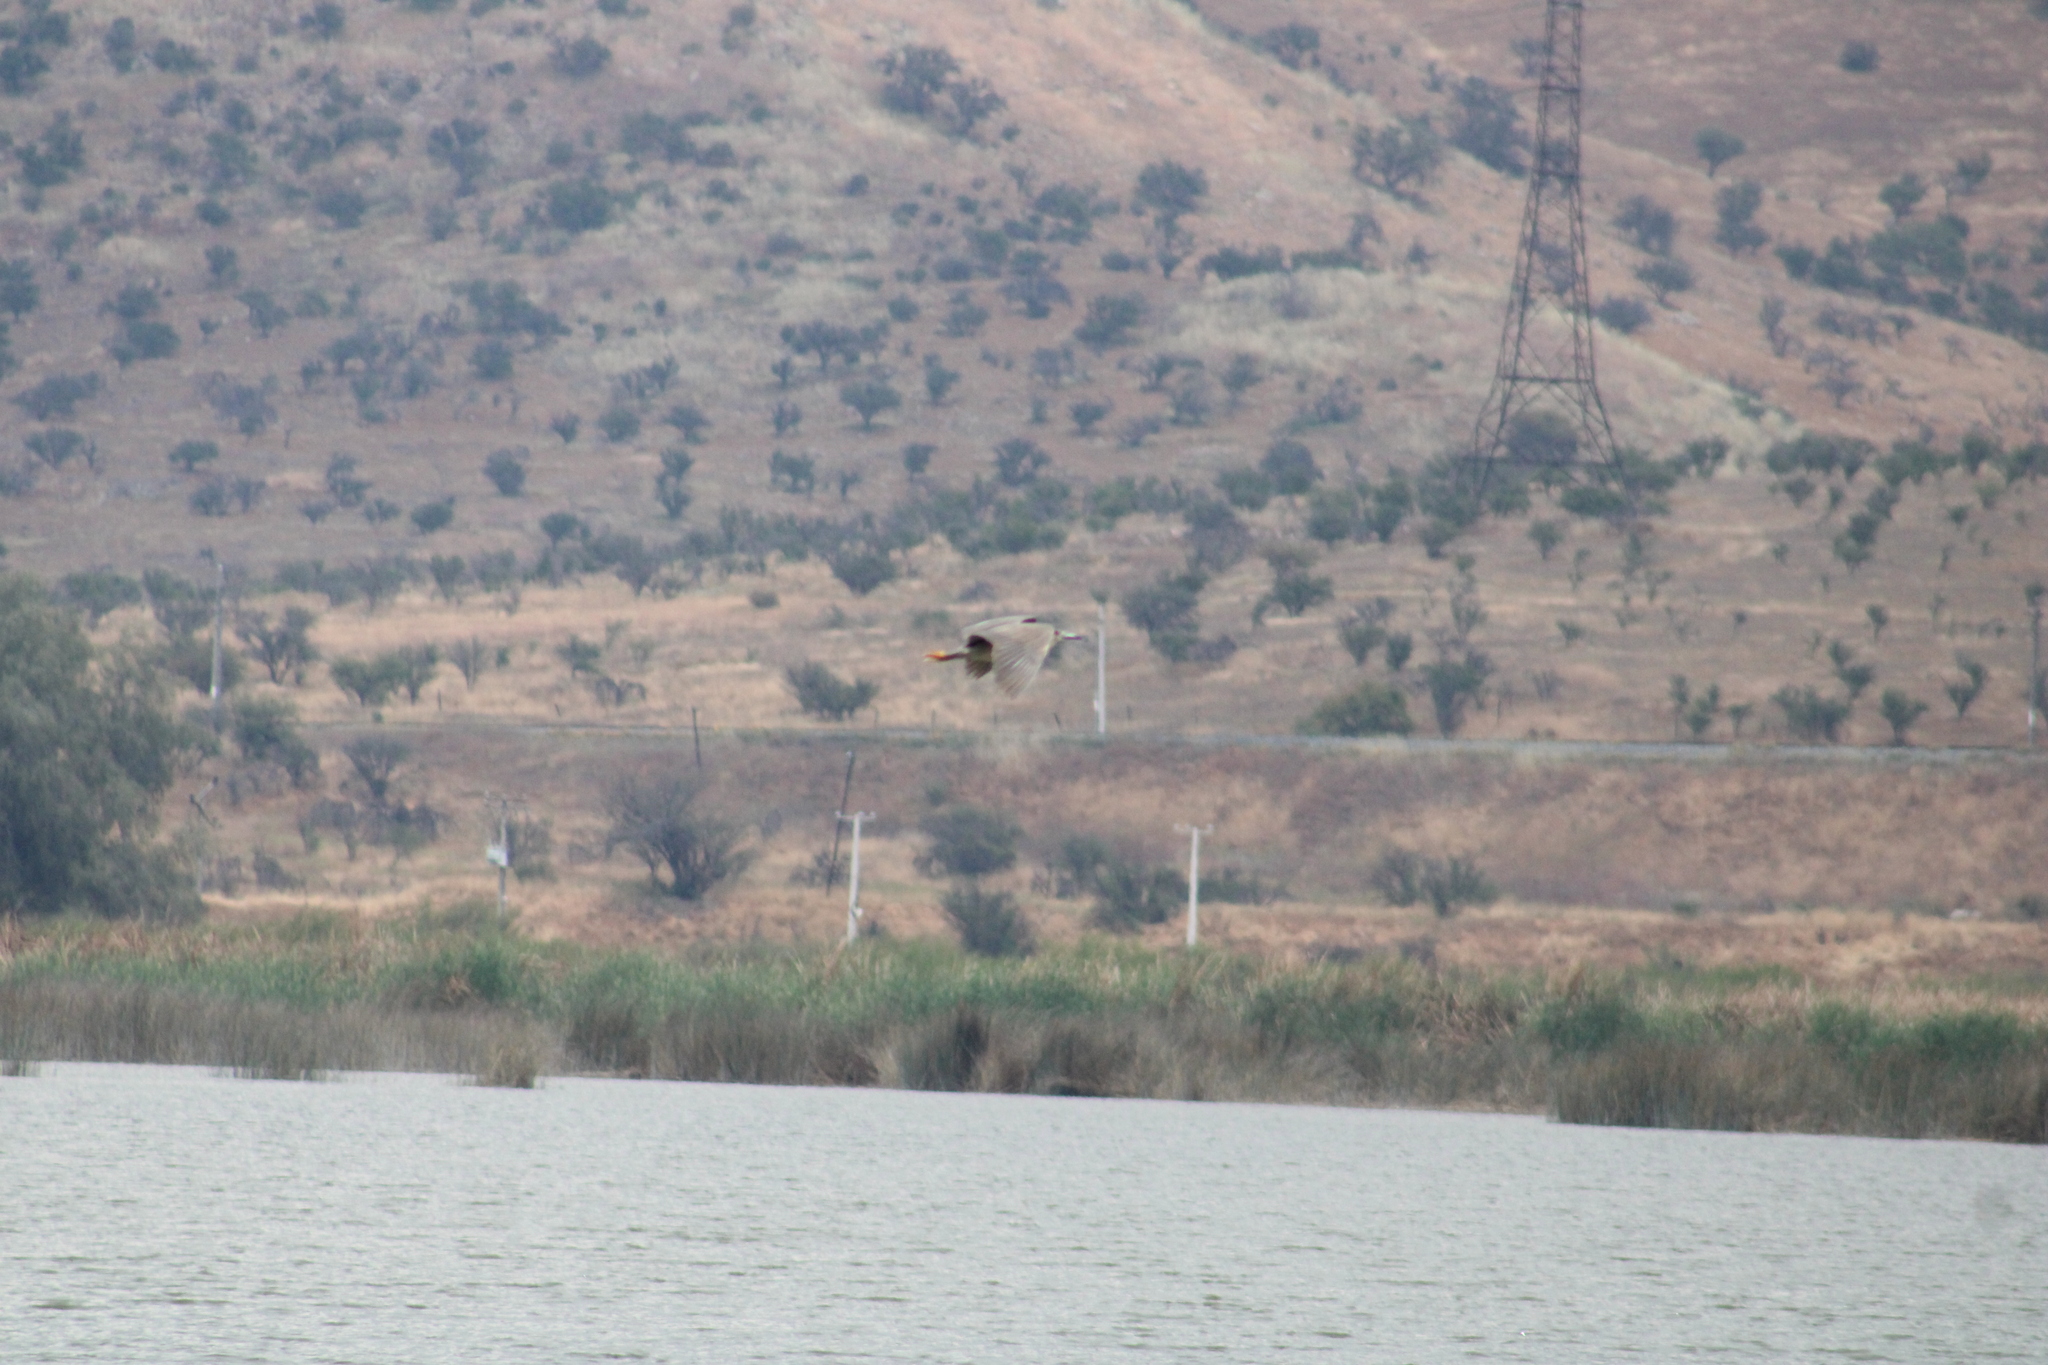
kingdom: Animalia
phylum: Chordata
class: Aves
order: Pelecaniformes
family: Ardeidae
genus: Nycticorax
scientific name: Nycticorax nycticorax
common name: Black-crowned night heron
